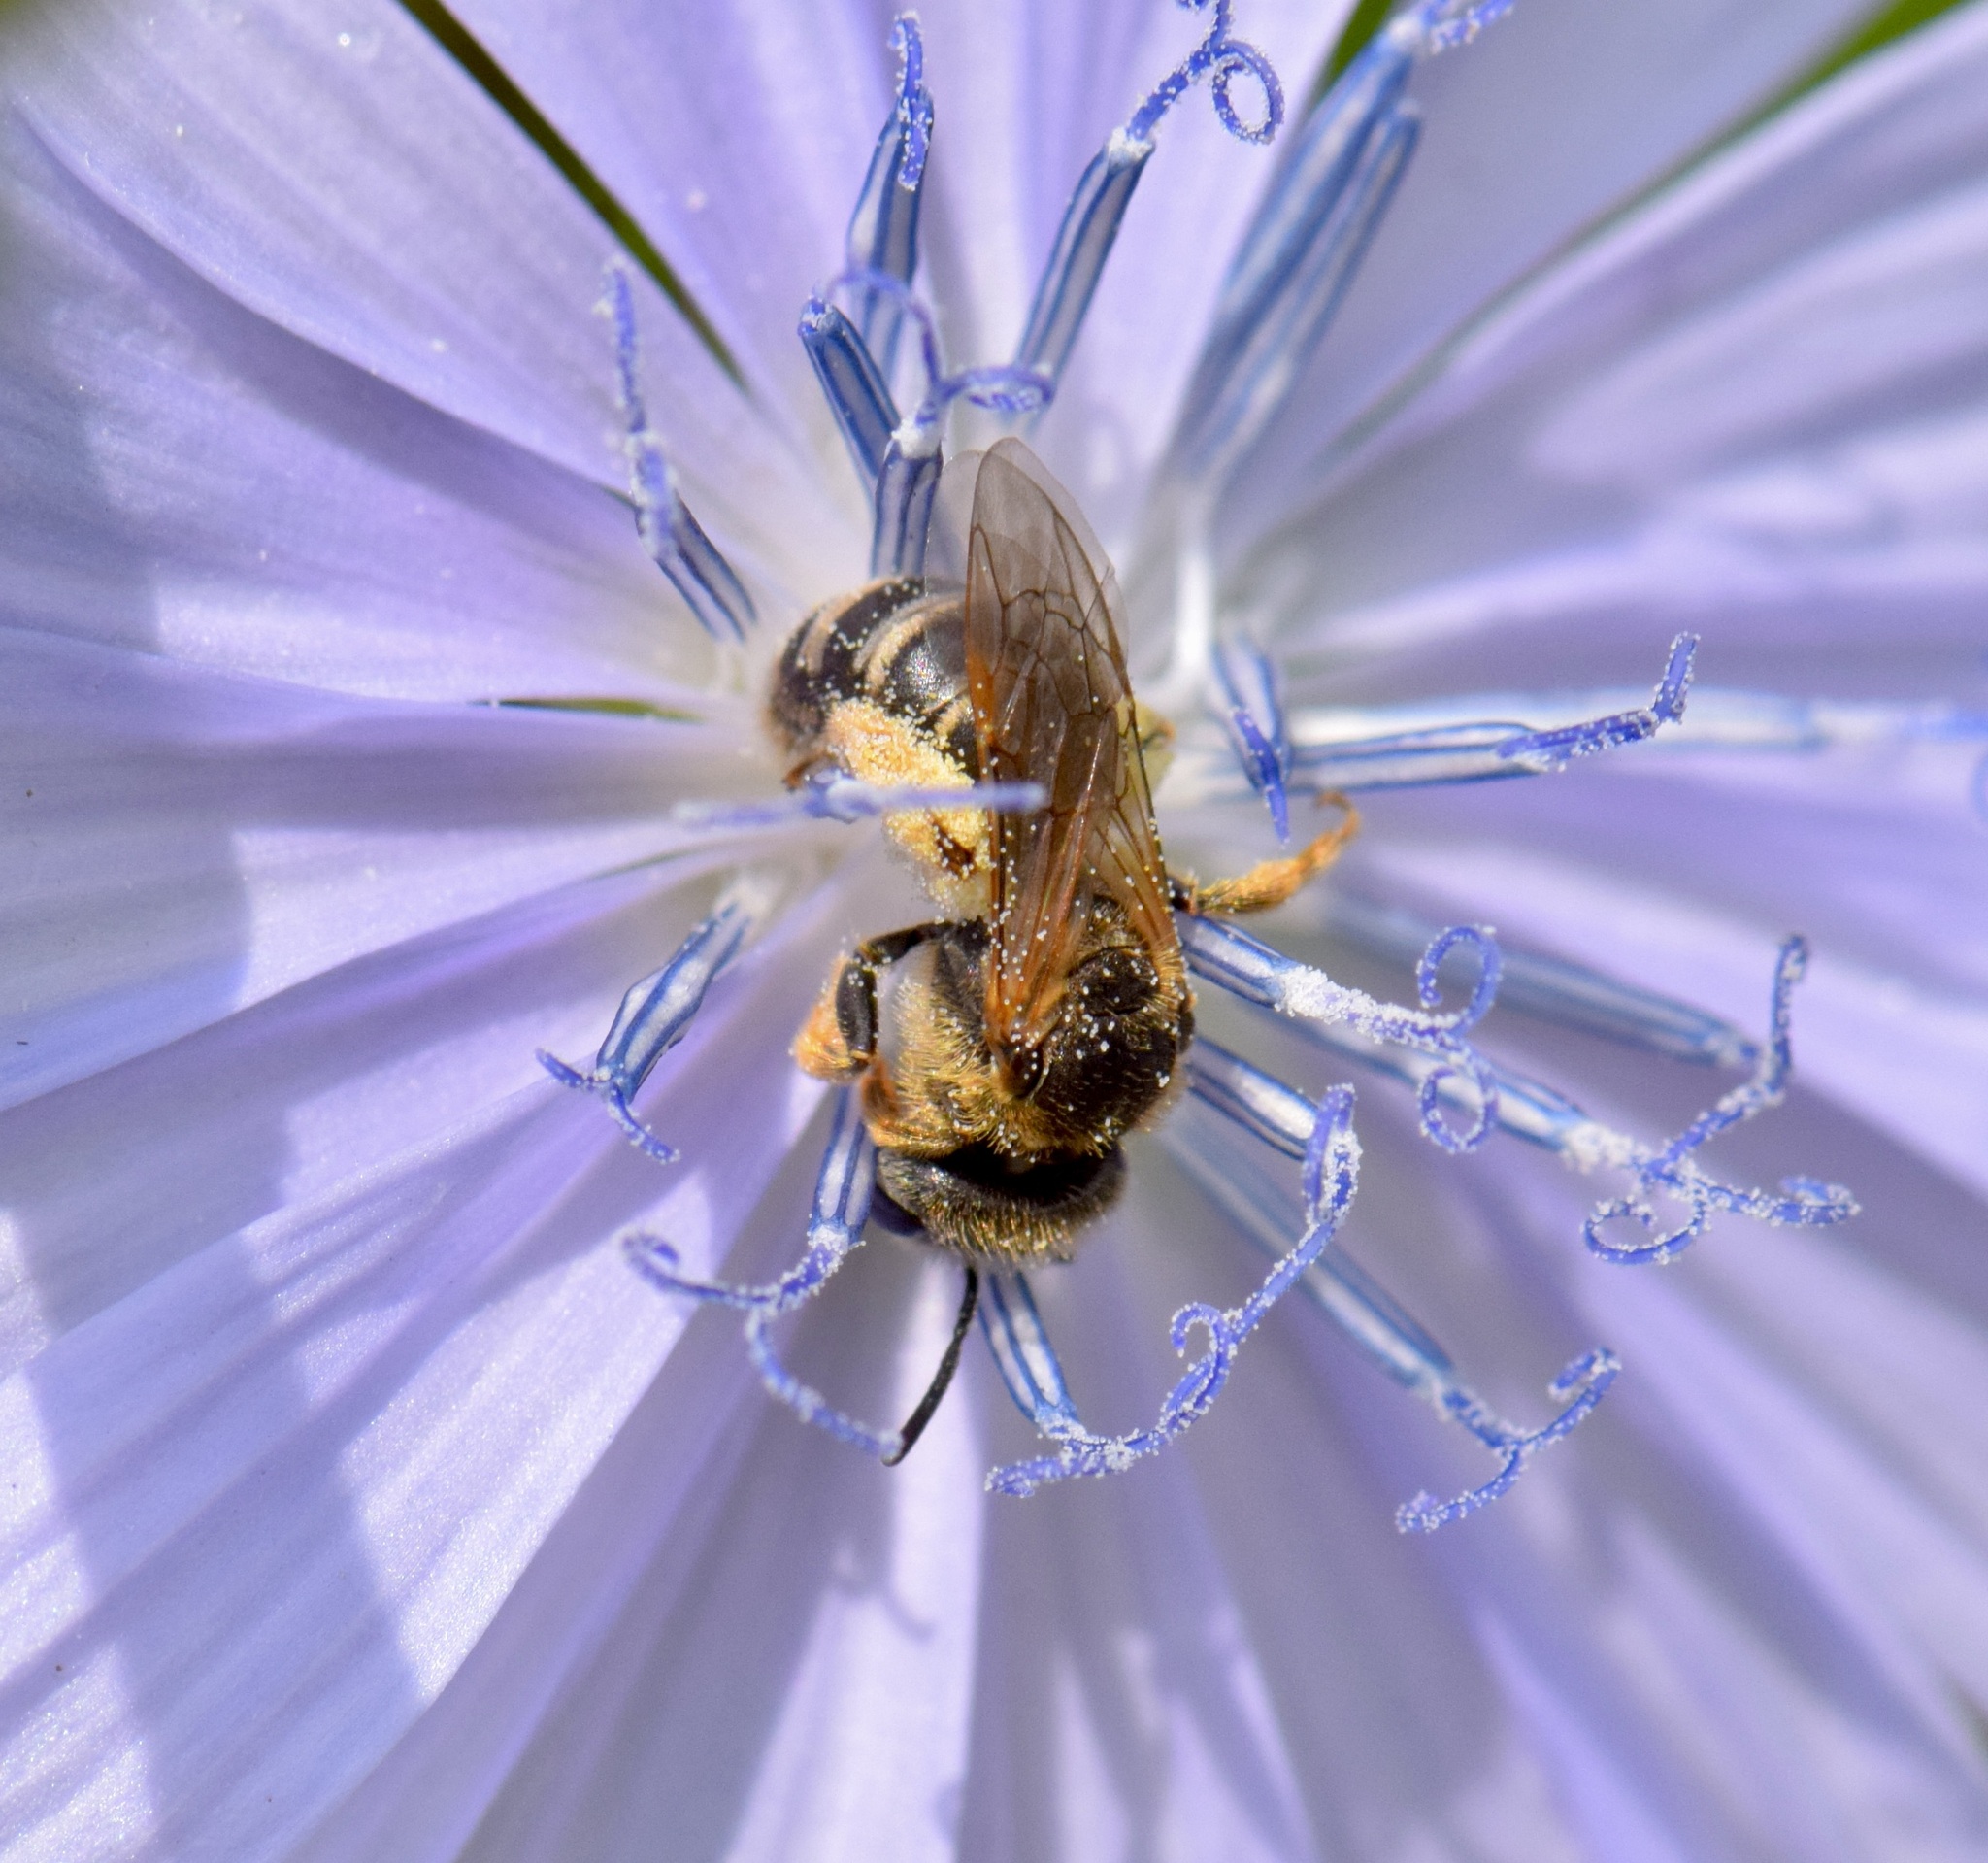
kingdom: Animalia
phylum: Arthropoda
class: Insecta
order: Hymenoptera
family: Halictidae
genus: Halictus
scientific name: Halictus ligatus
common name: Ligated furrow bee
